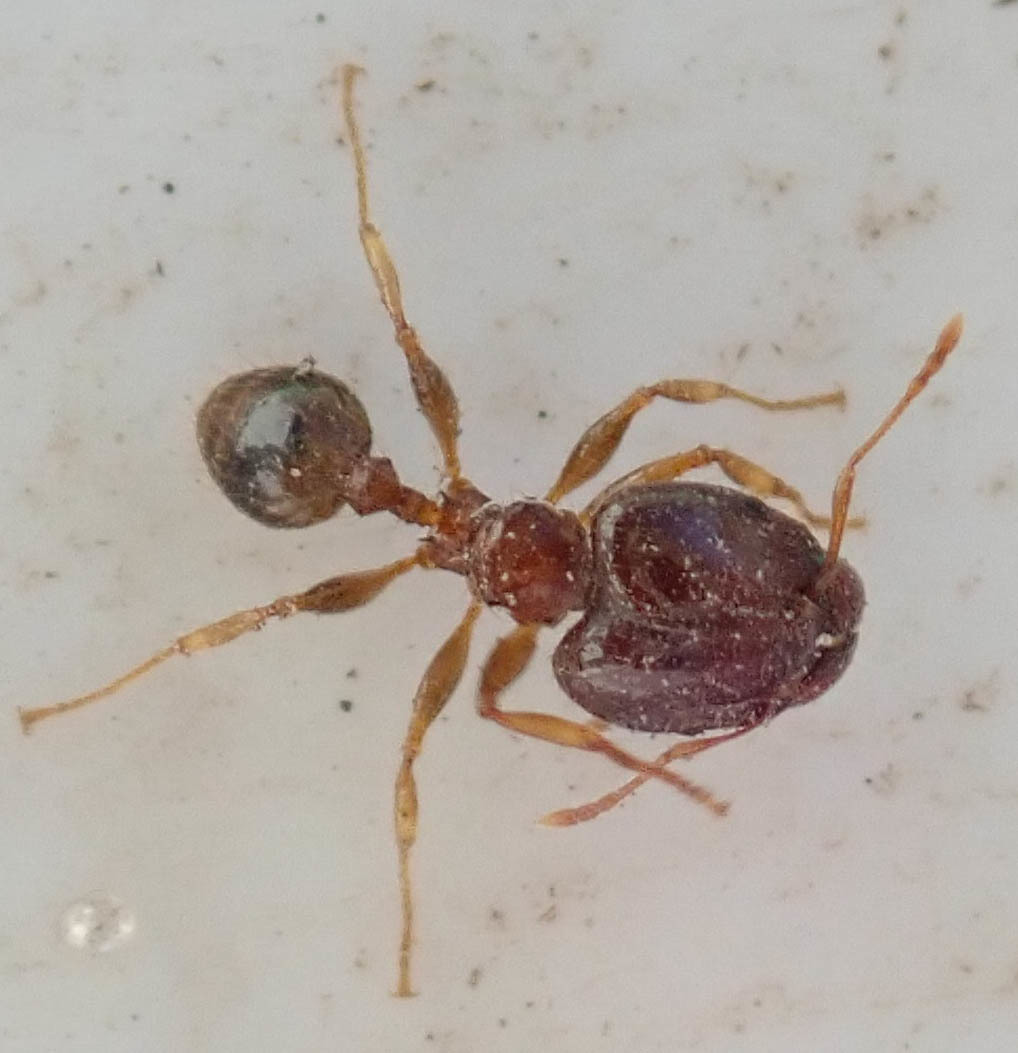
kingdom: Animalia
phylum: Arthropoda
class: Insecta
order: Hymenoptera
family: Formicidae
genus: Pheidole
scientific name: Pheidole megacephala
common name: Bigheaded ant
